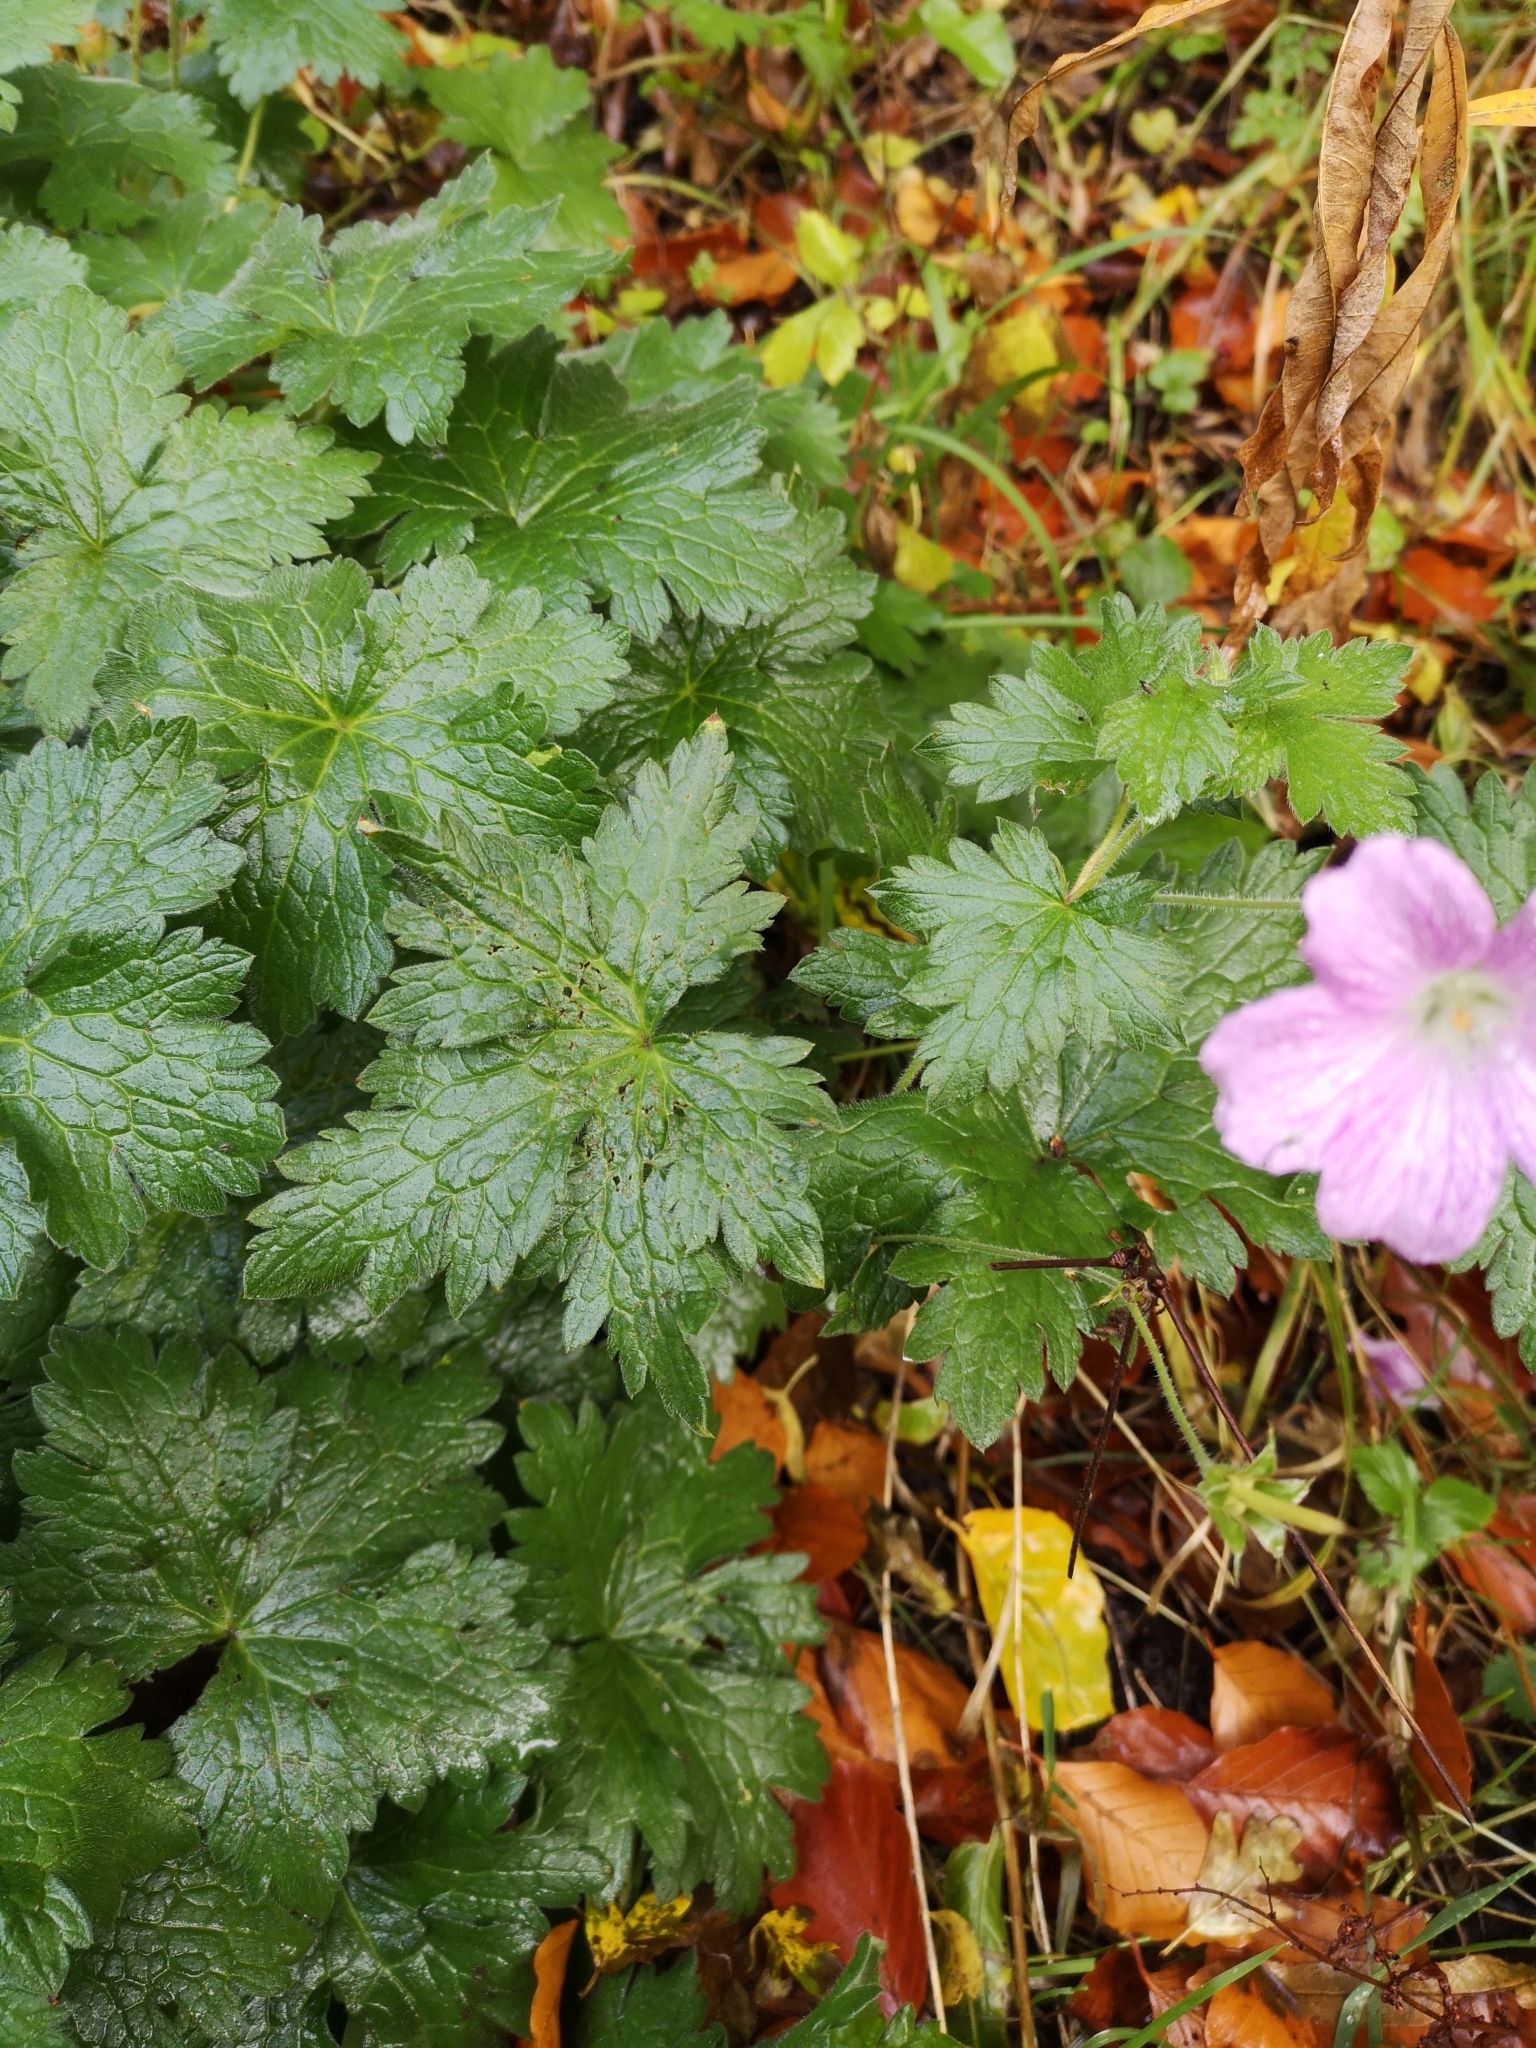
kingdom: Plantae
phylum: Tracheophyta
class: Magnoliopsida
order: Geraniales
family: Geraniaceae
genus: Geranium
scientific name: Geranium oxonianum
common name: Druce's crane's-bill
